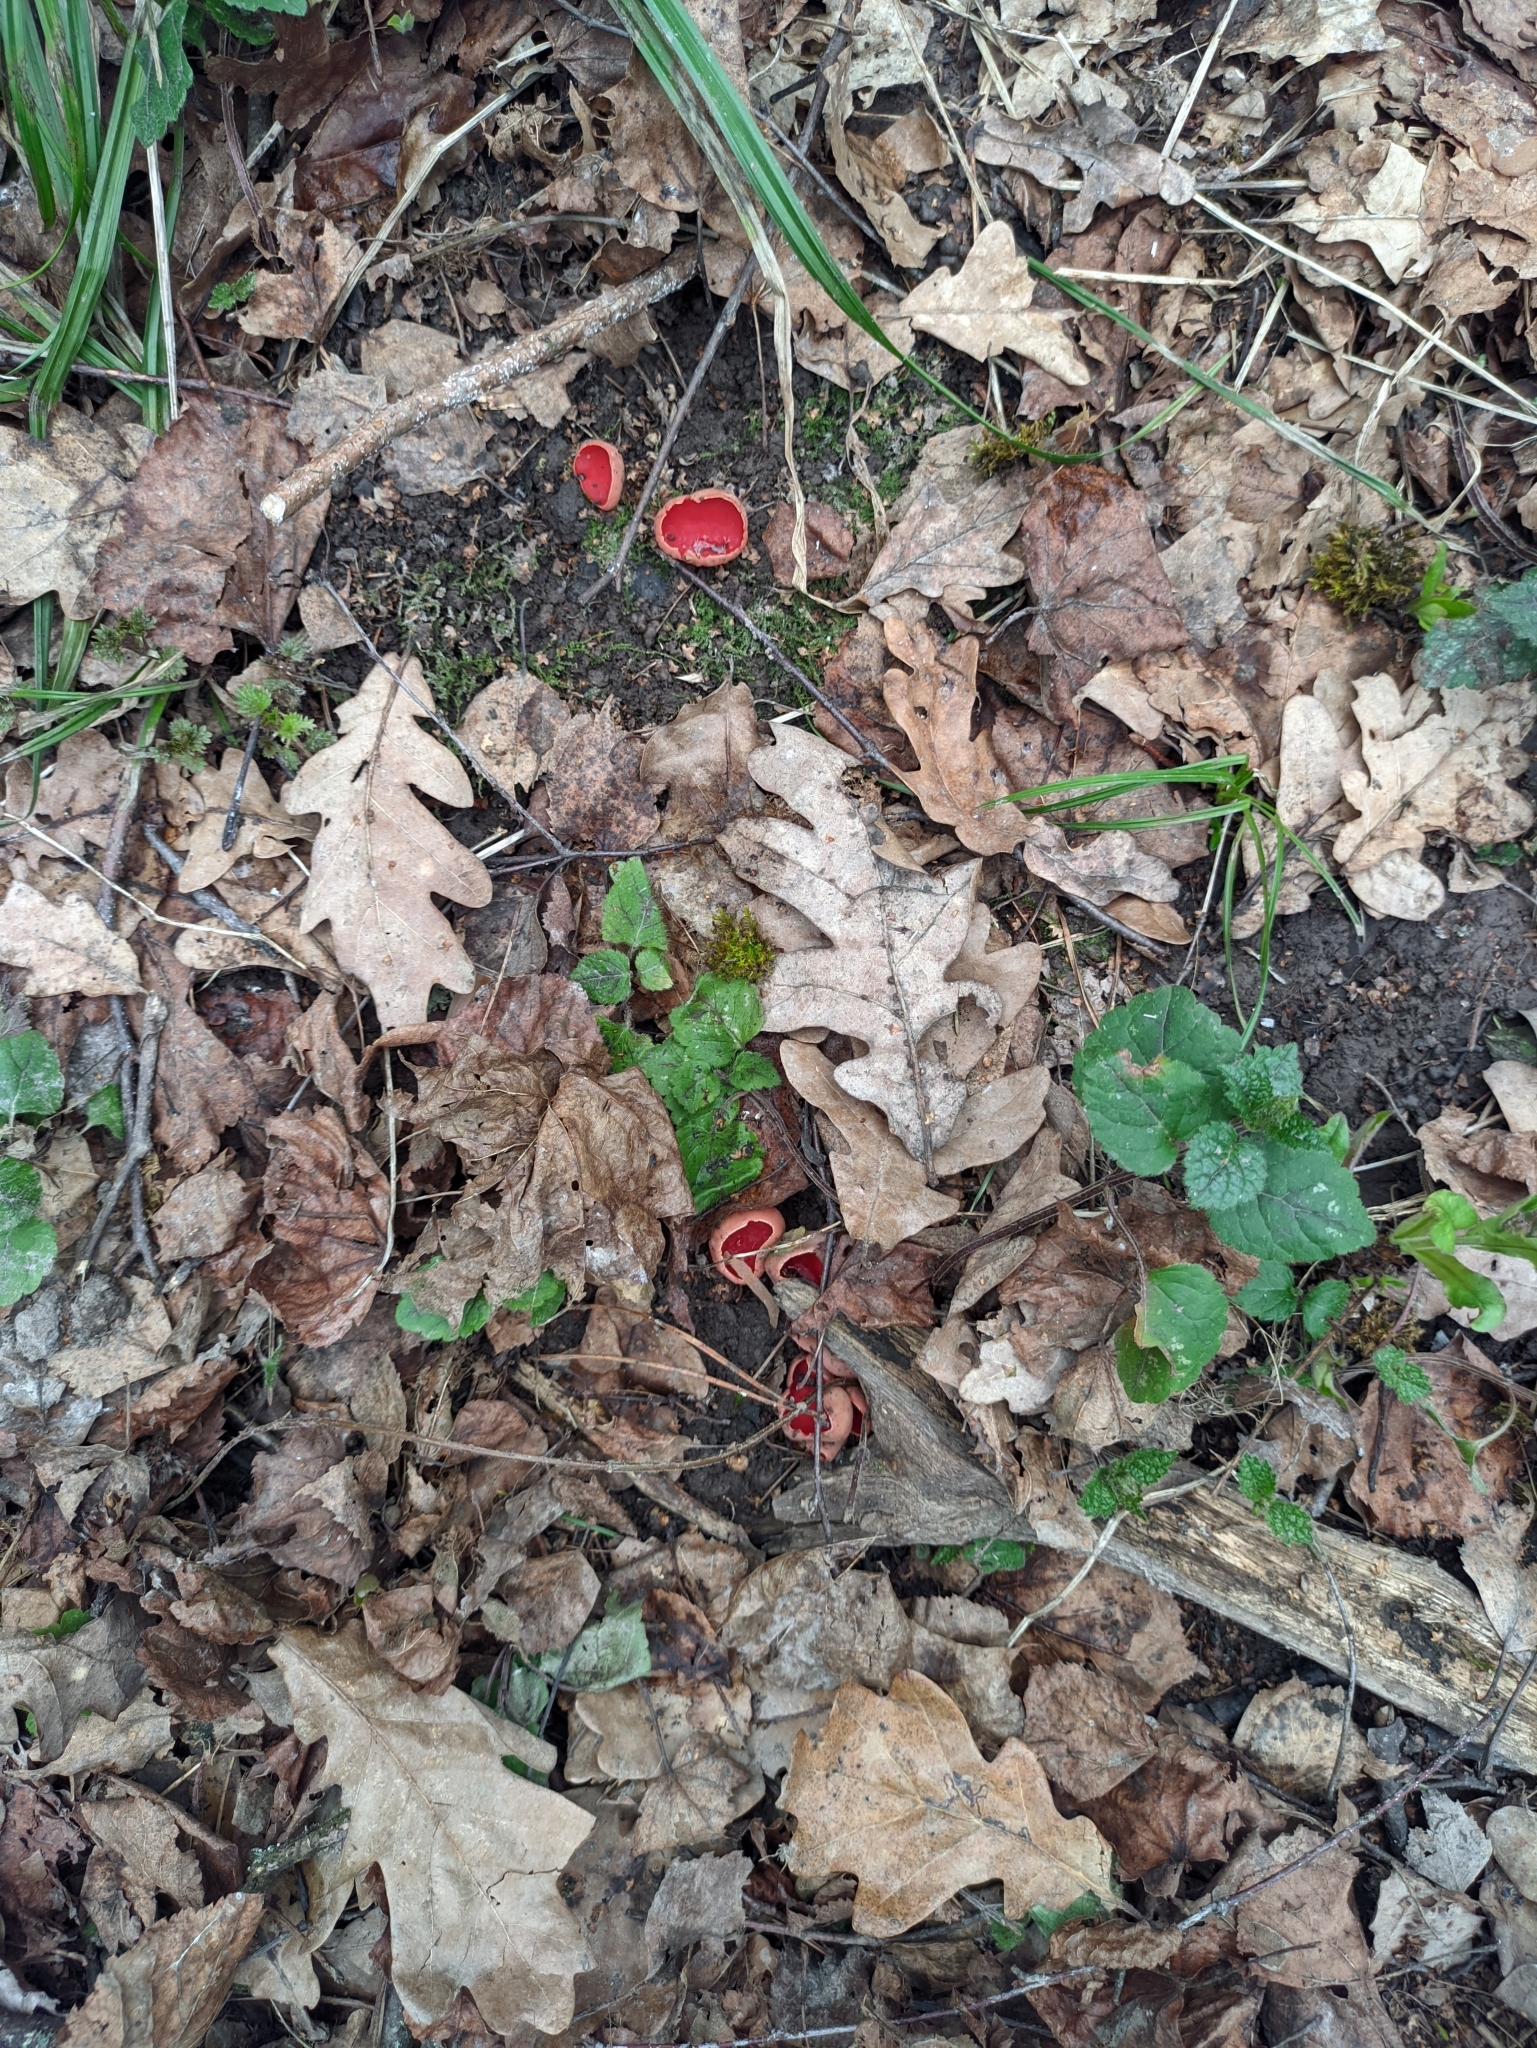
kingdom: Fungi
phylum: Ascomycota
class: Pezizomycetes
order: Pezizales
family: Sarcoscyphaceae
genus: Sarcoscypha
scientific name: Sarcoscypha austriaca
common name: Scarlet elfcup
